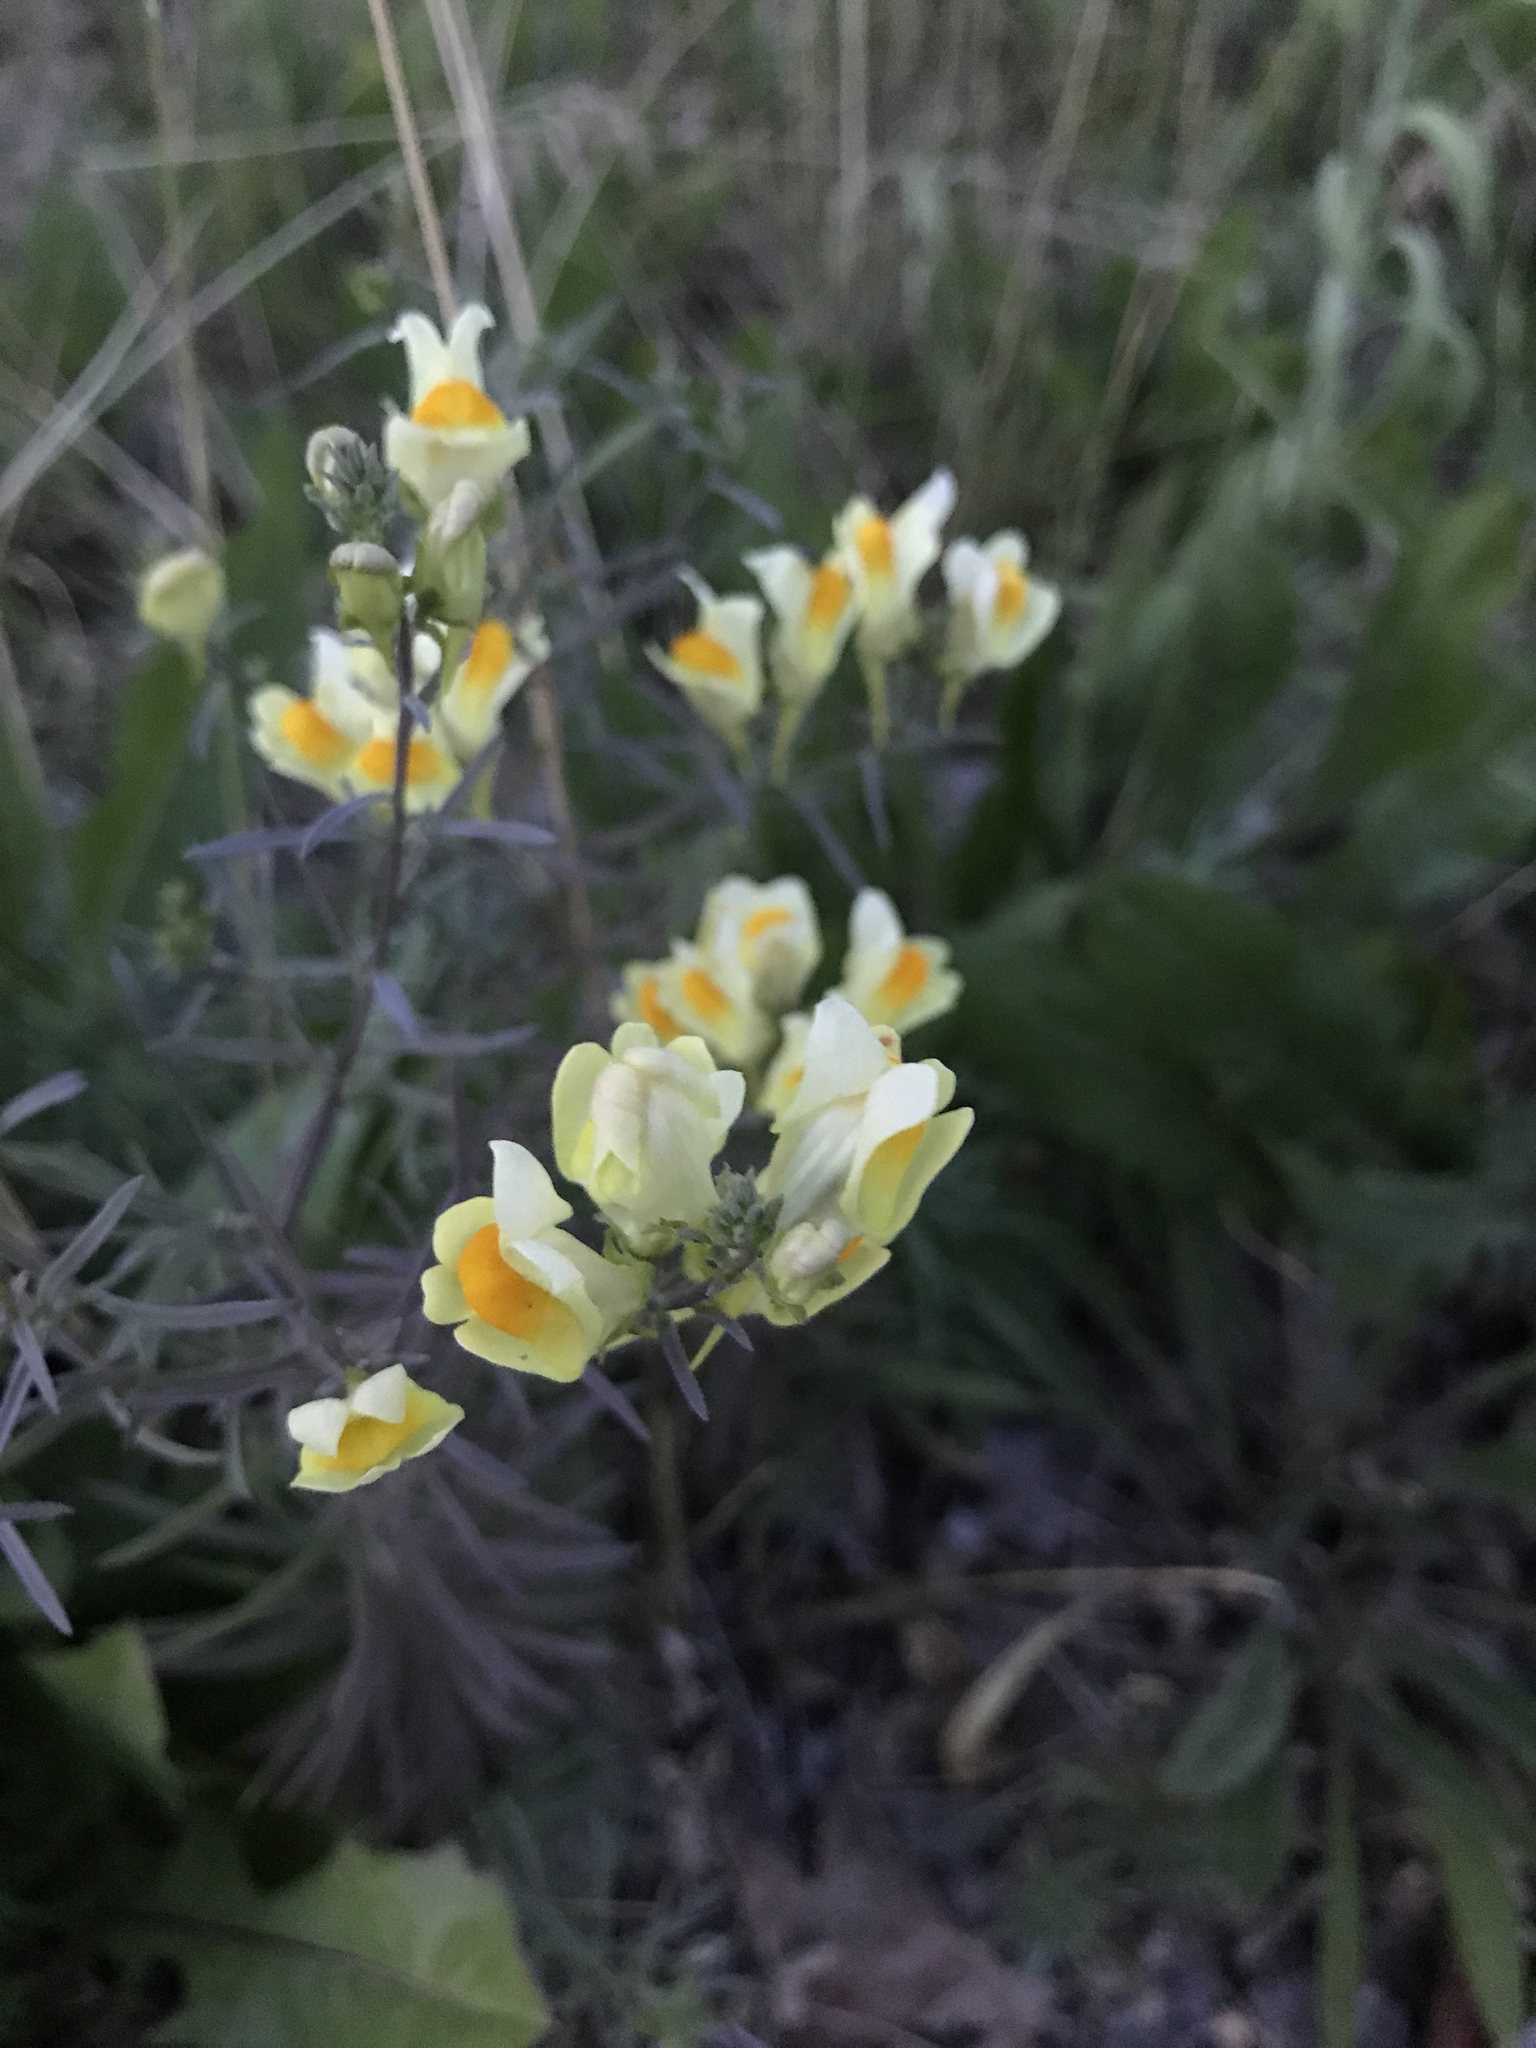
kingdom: Plantae
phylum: Tracheophyta
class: Magnoliopsida
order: Lamiales
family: Plantaginaceae
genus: Linaria
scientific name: Linaria vulgaris
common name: Butter and eggs
